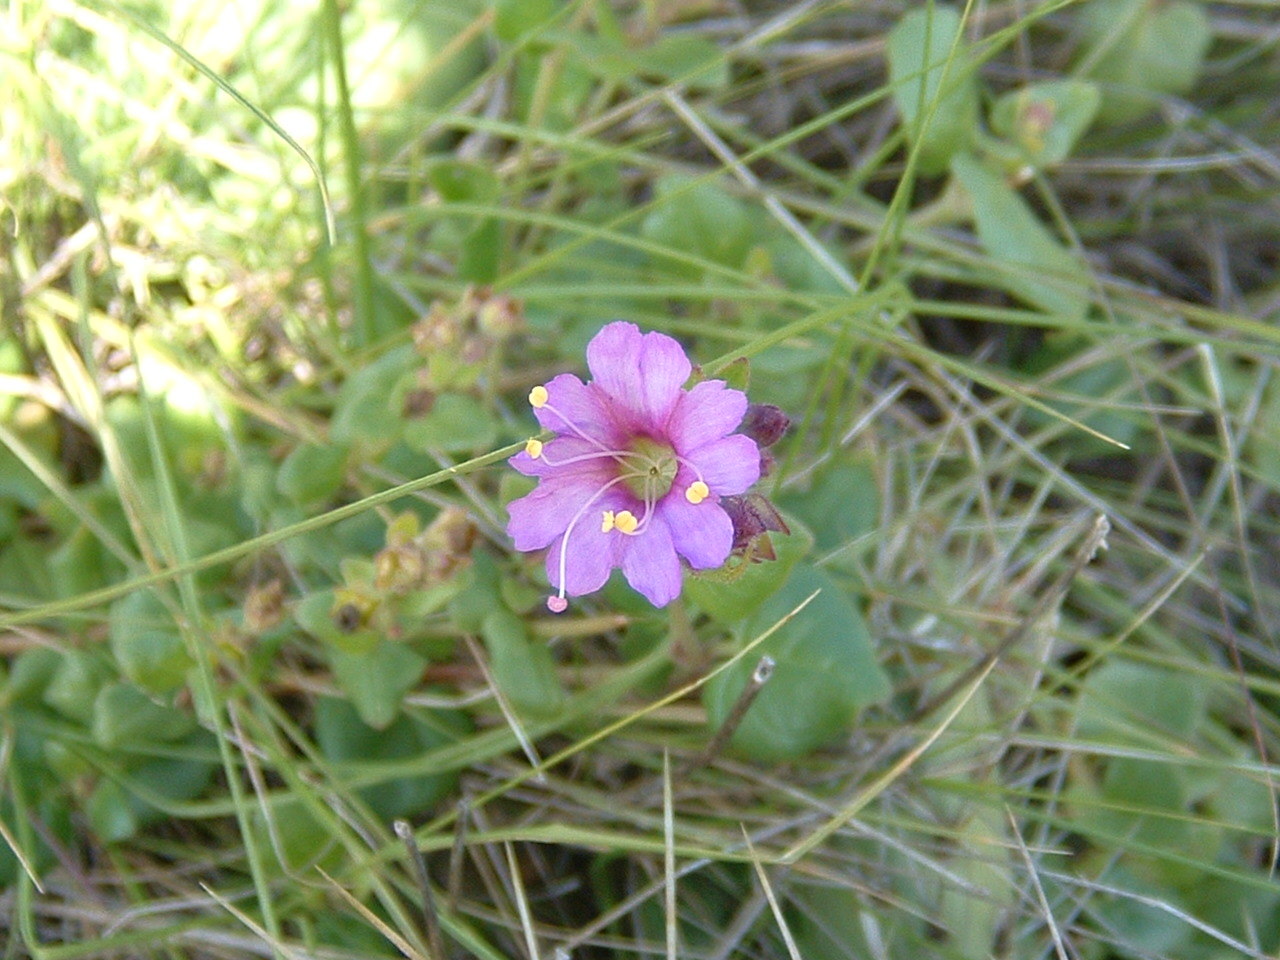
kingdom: Plantae
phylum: Tracheophyta
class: Magnoliopsida
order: Caryophyllales
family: Nyctaginaceae
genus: Mirabilis
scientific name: Mirabilis laevis
